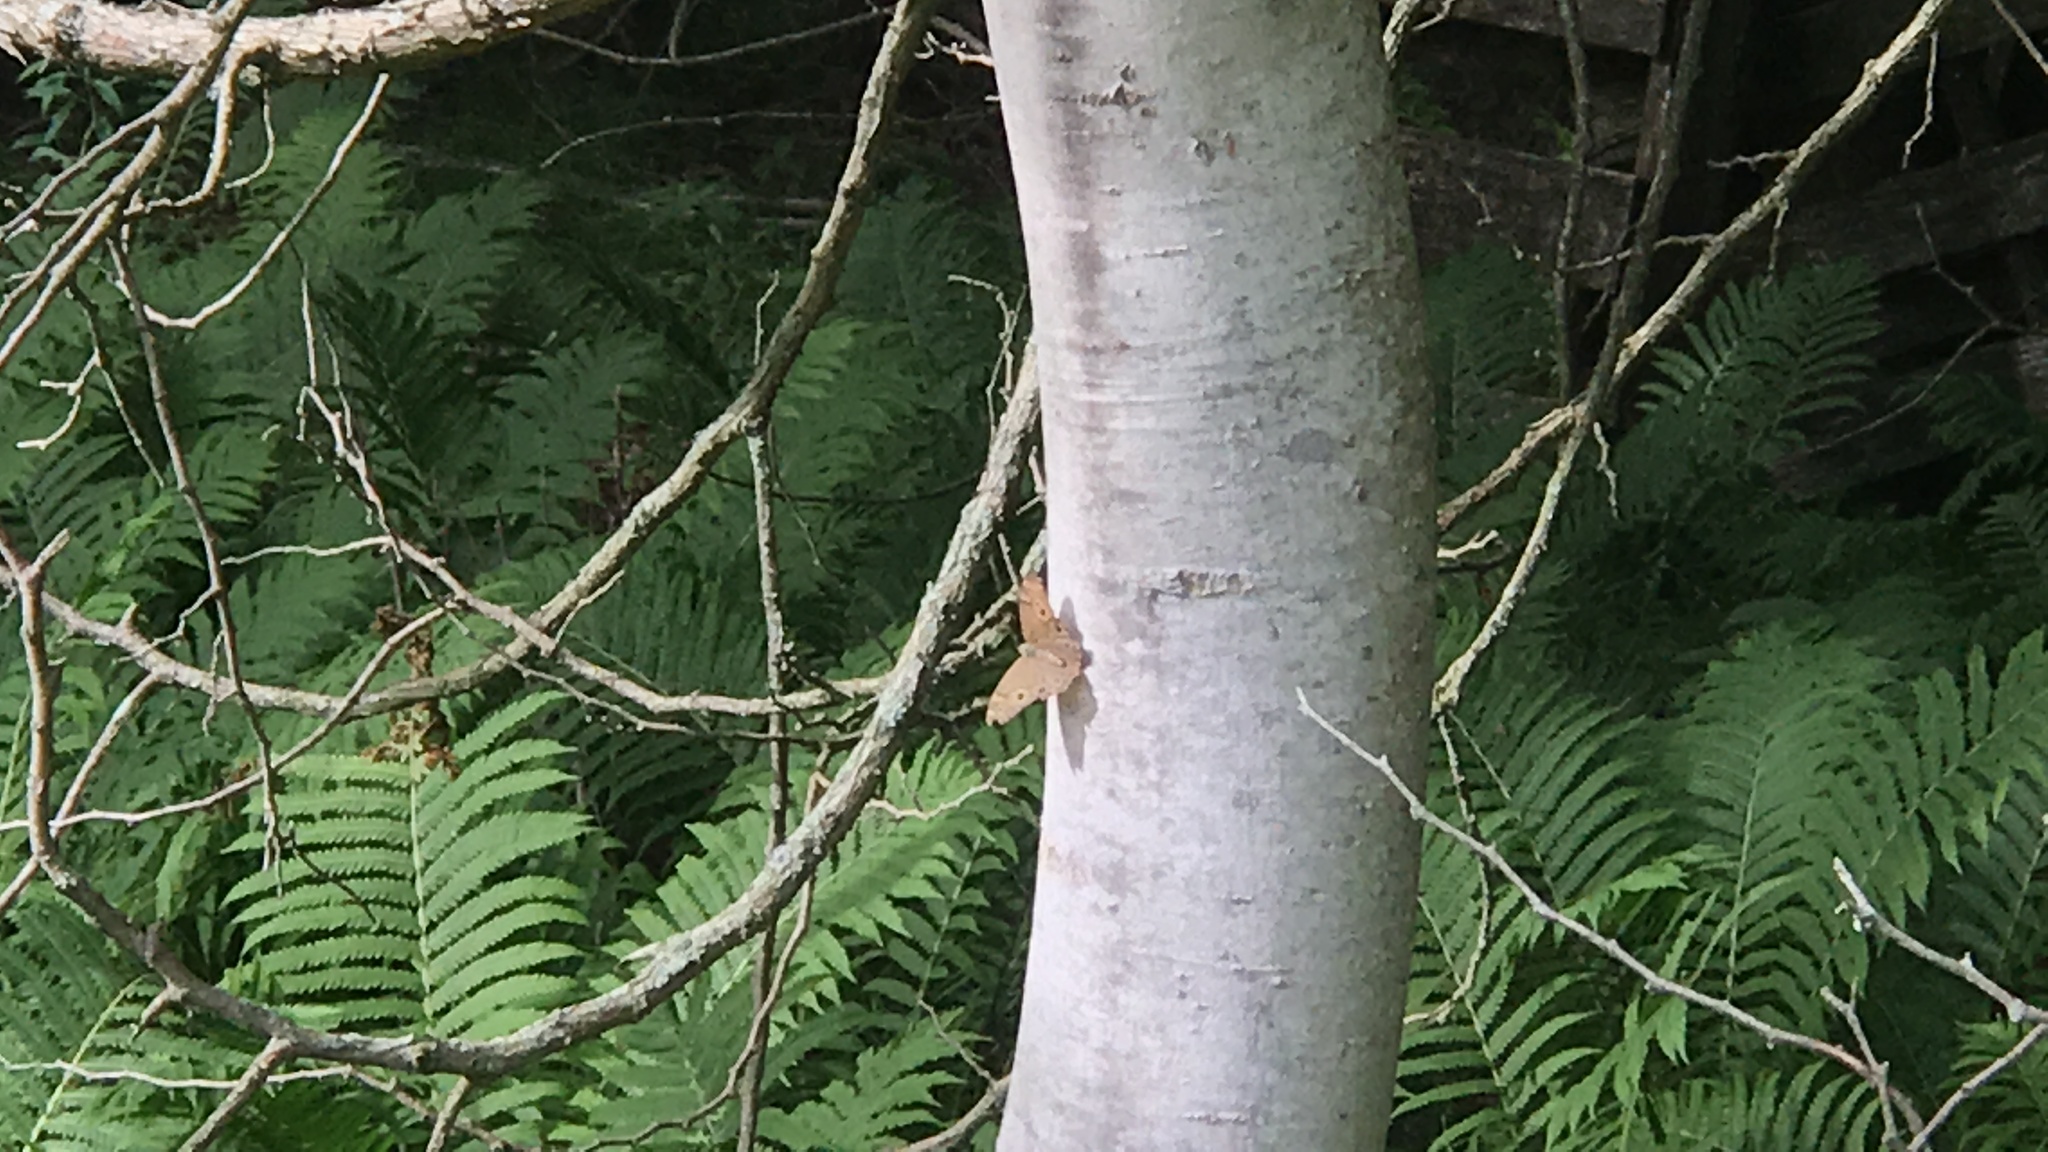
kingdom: Animalia
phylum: Arthropoda
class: Insecta
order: Lepidoptera
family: Nymphalidae
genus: Lethe
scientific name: Lethe anthedon
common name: Northern pearly-eye
